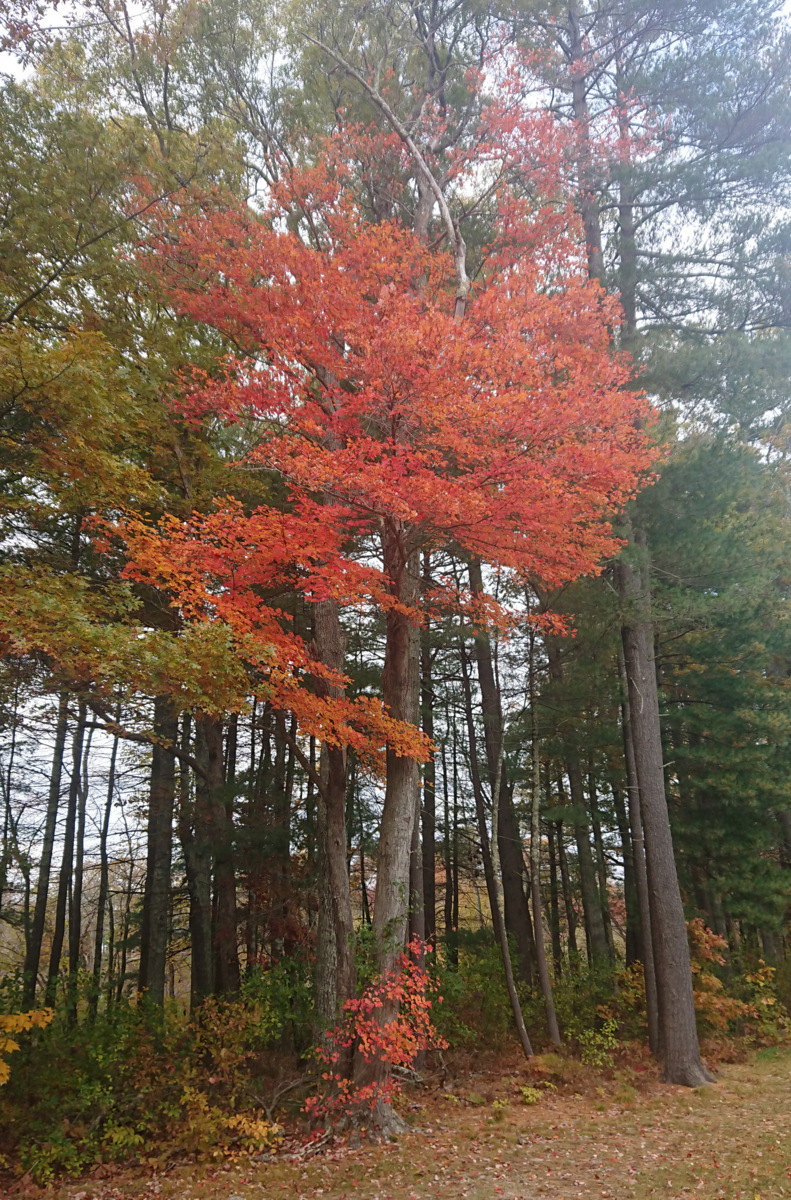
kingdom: Plantae
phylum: Tracheophyta
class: Magnoliopsida
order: Sapindales
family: Sapindaceae
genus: Acer
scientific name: Acer rubrum
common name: Red maple
